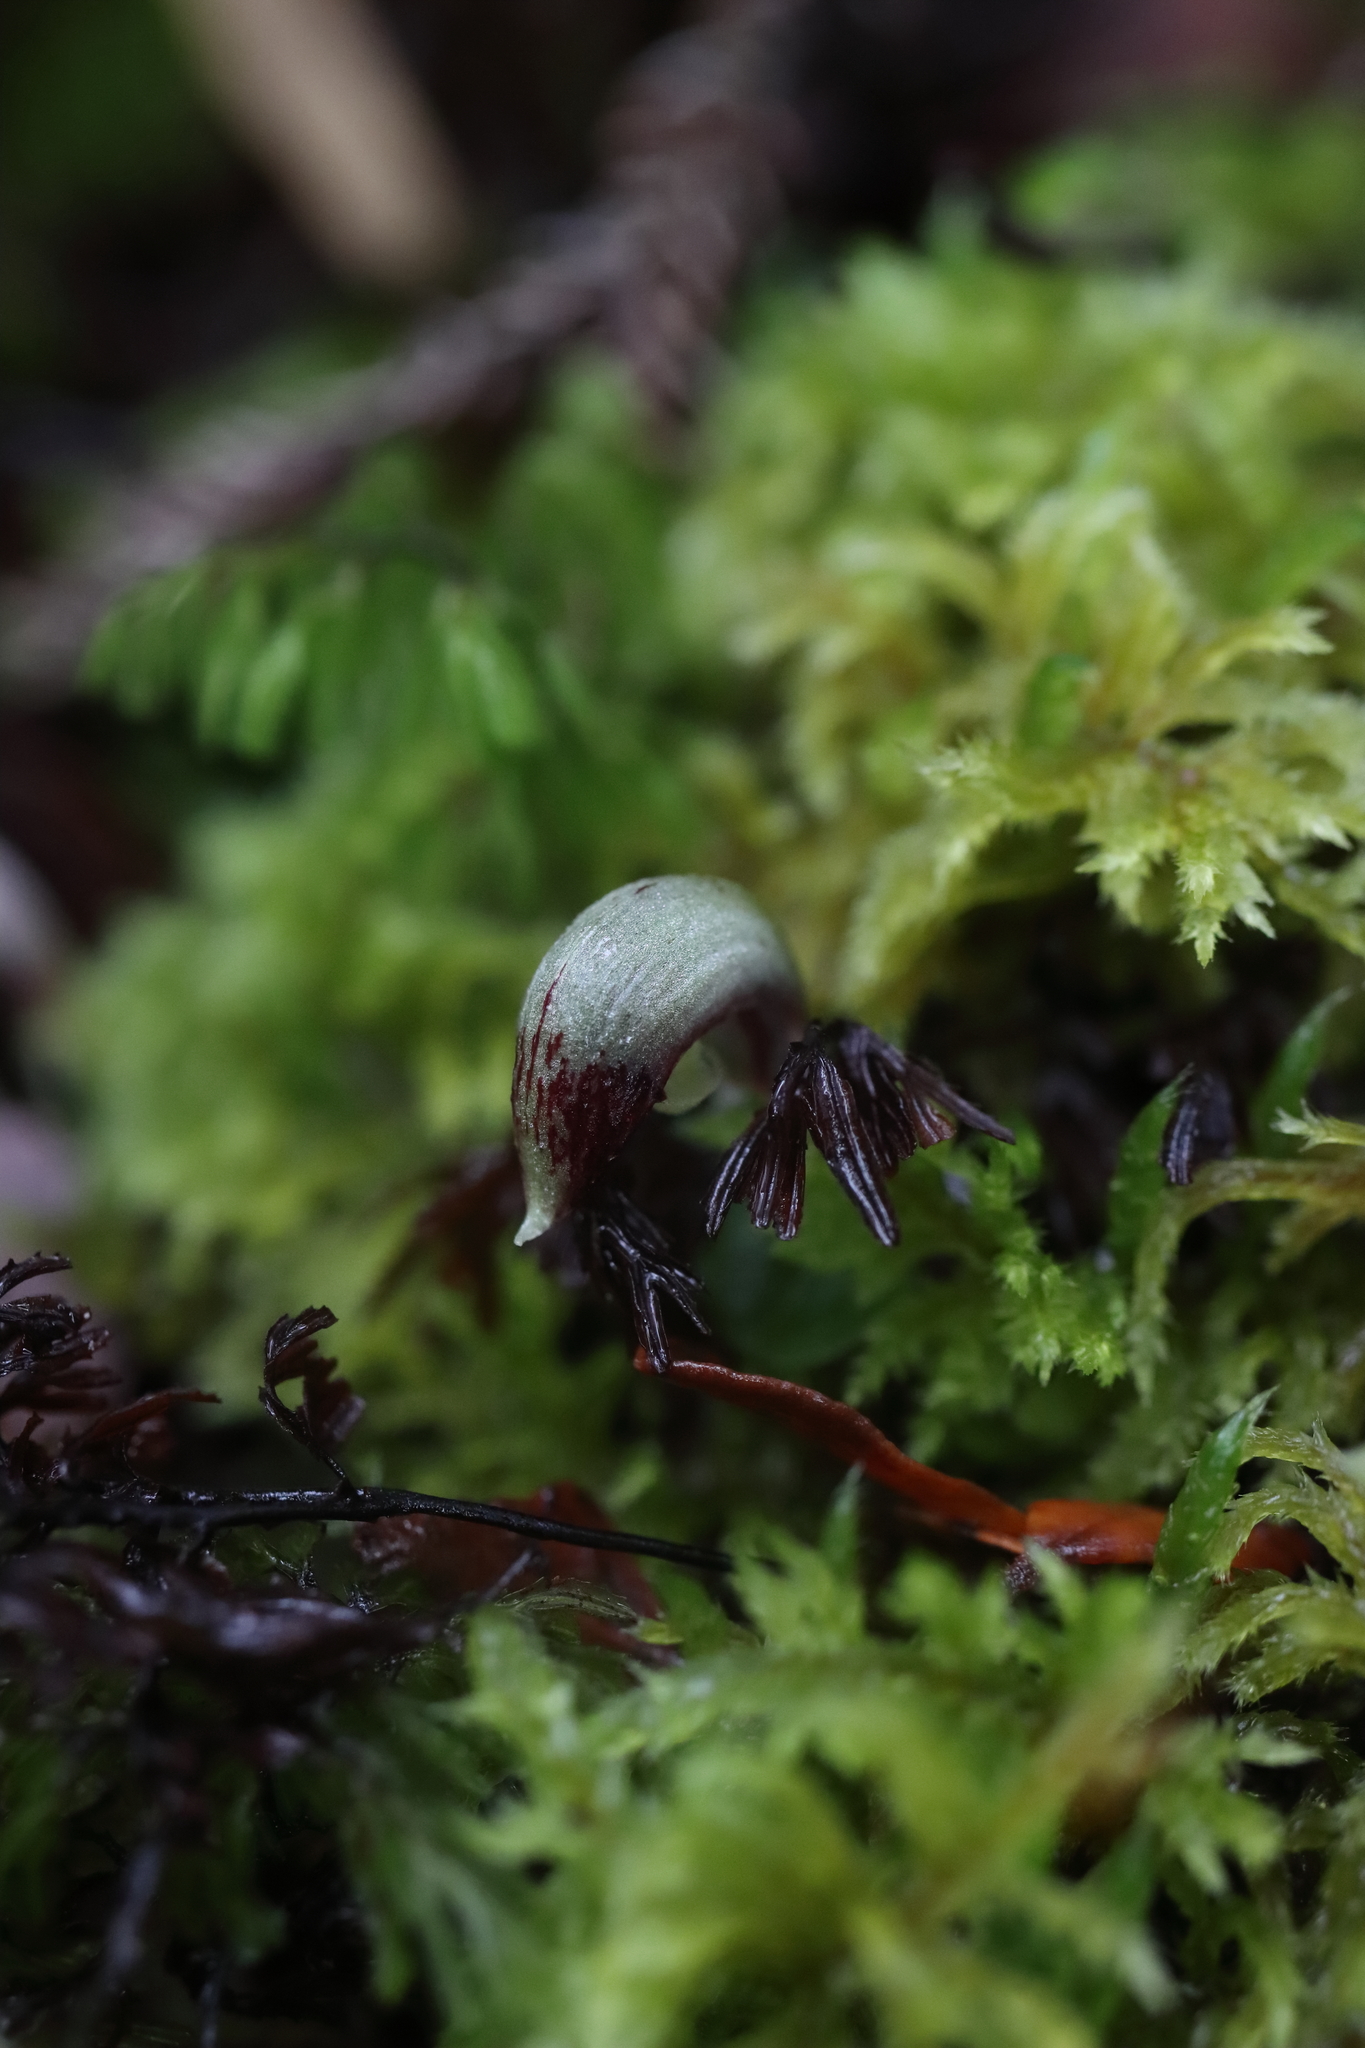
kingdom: Plantae
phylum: Tracheophyta
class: Liliopsida
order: Asparagales
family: Orchidaceae
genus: Corybas
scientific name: Corybas cheesemanii
